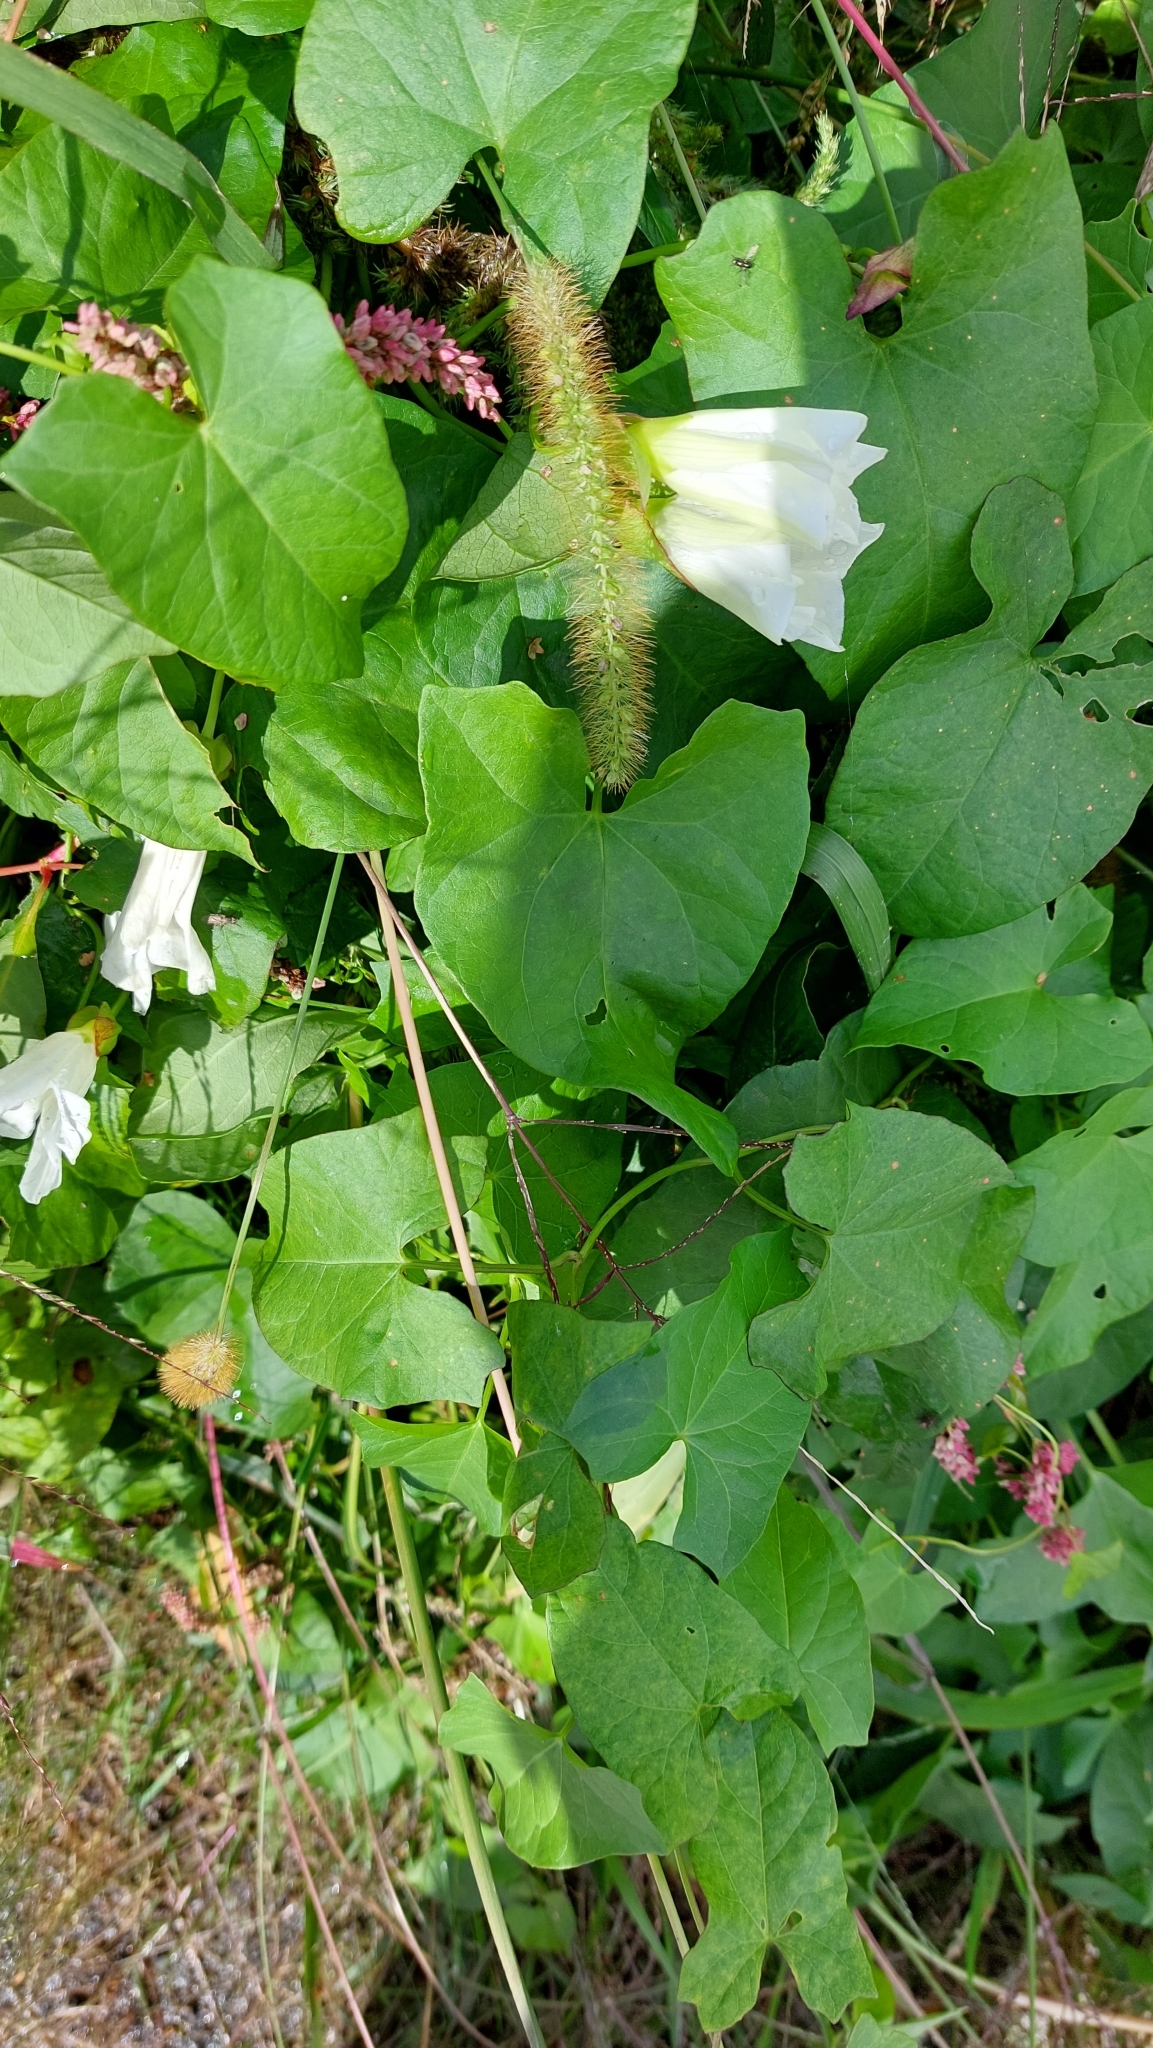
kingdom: Plantae
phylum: Tracheophyta
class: Magnoliopsida
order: Solanales
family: Convolvulaceae
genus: Calystegia
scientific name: Calystegia sepium
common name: Hedge bindweed
